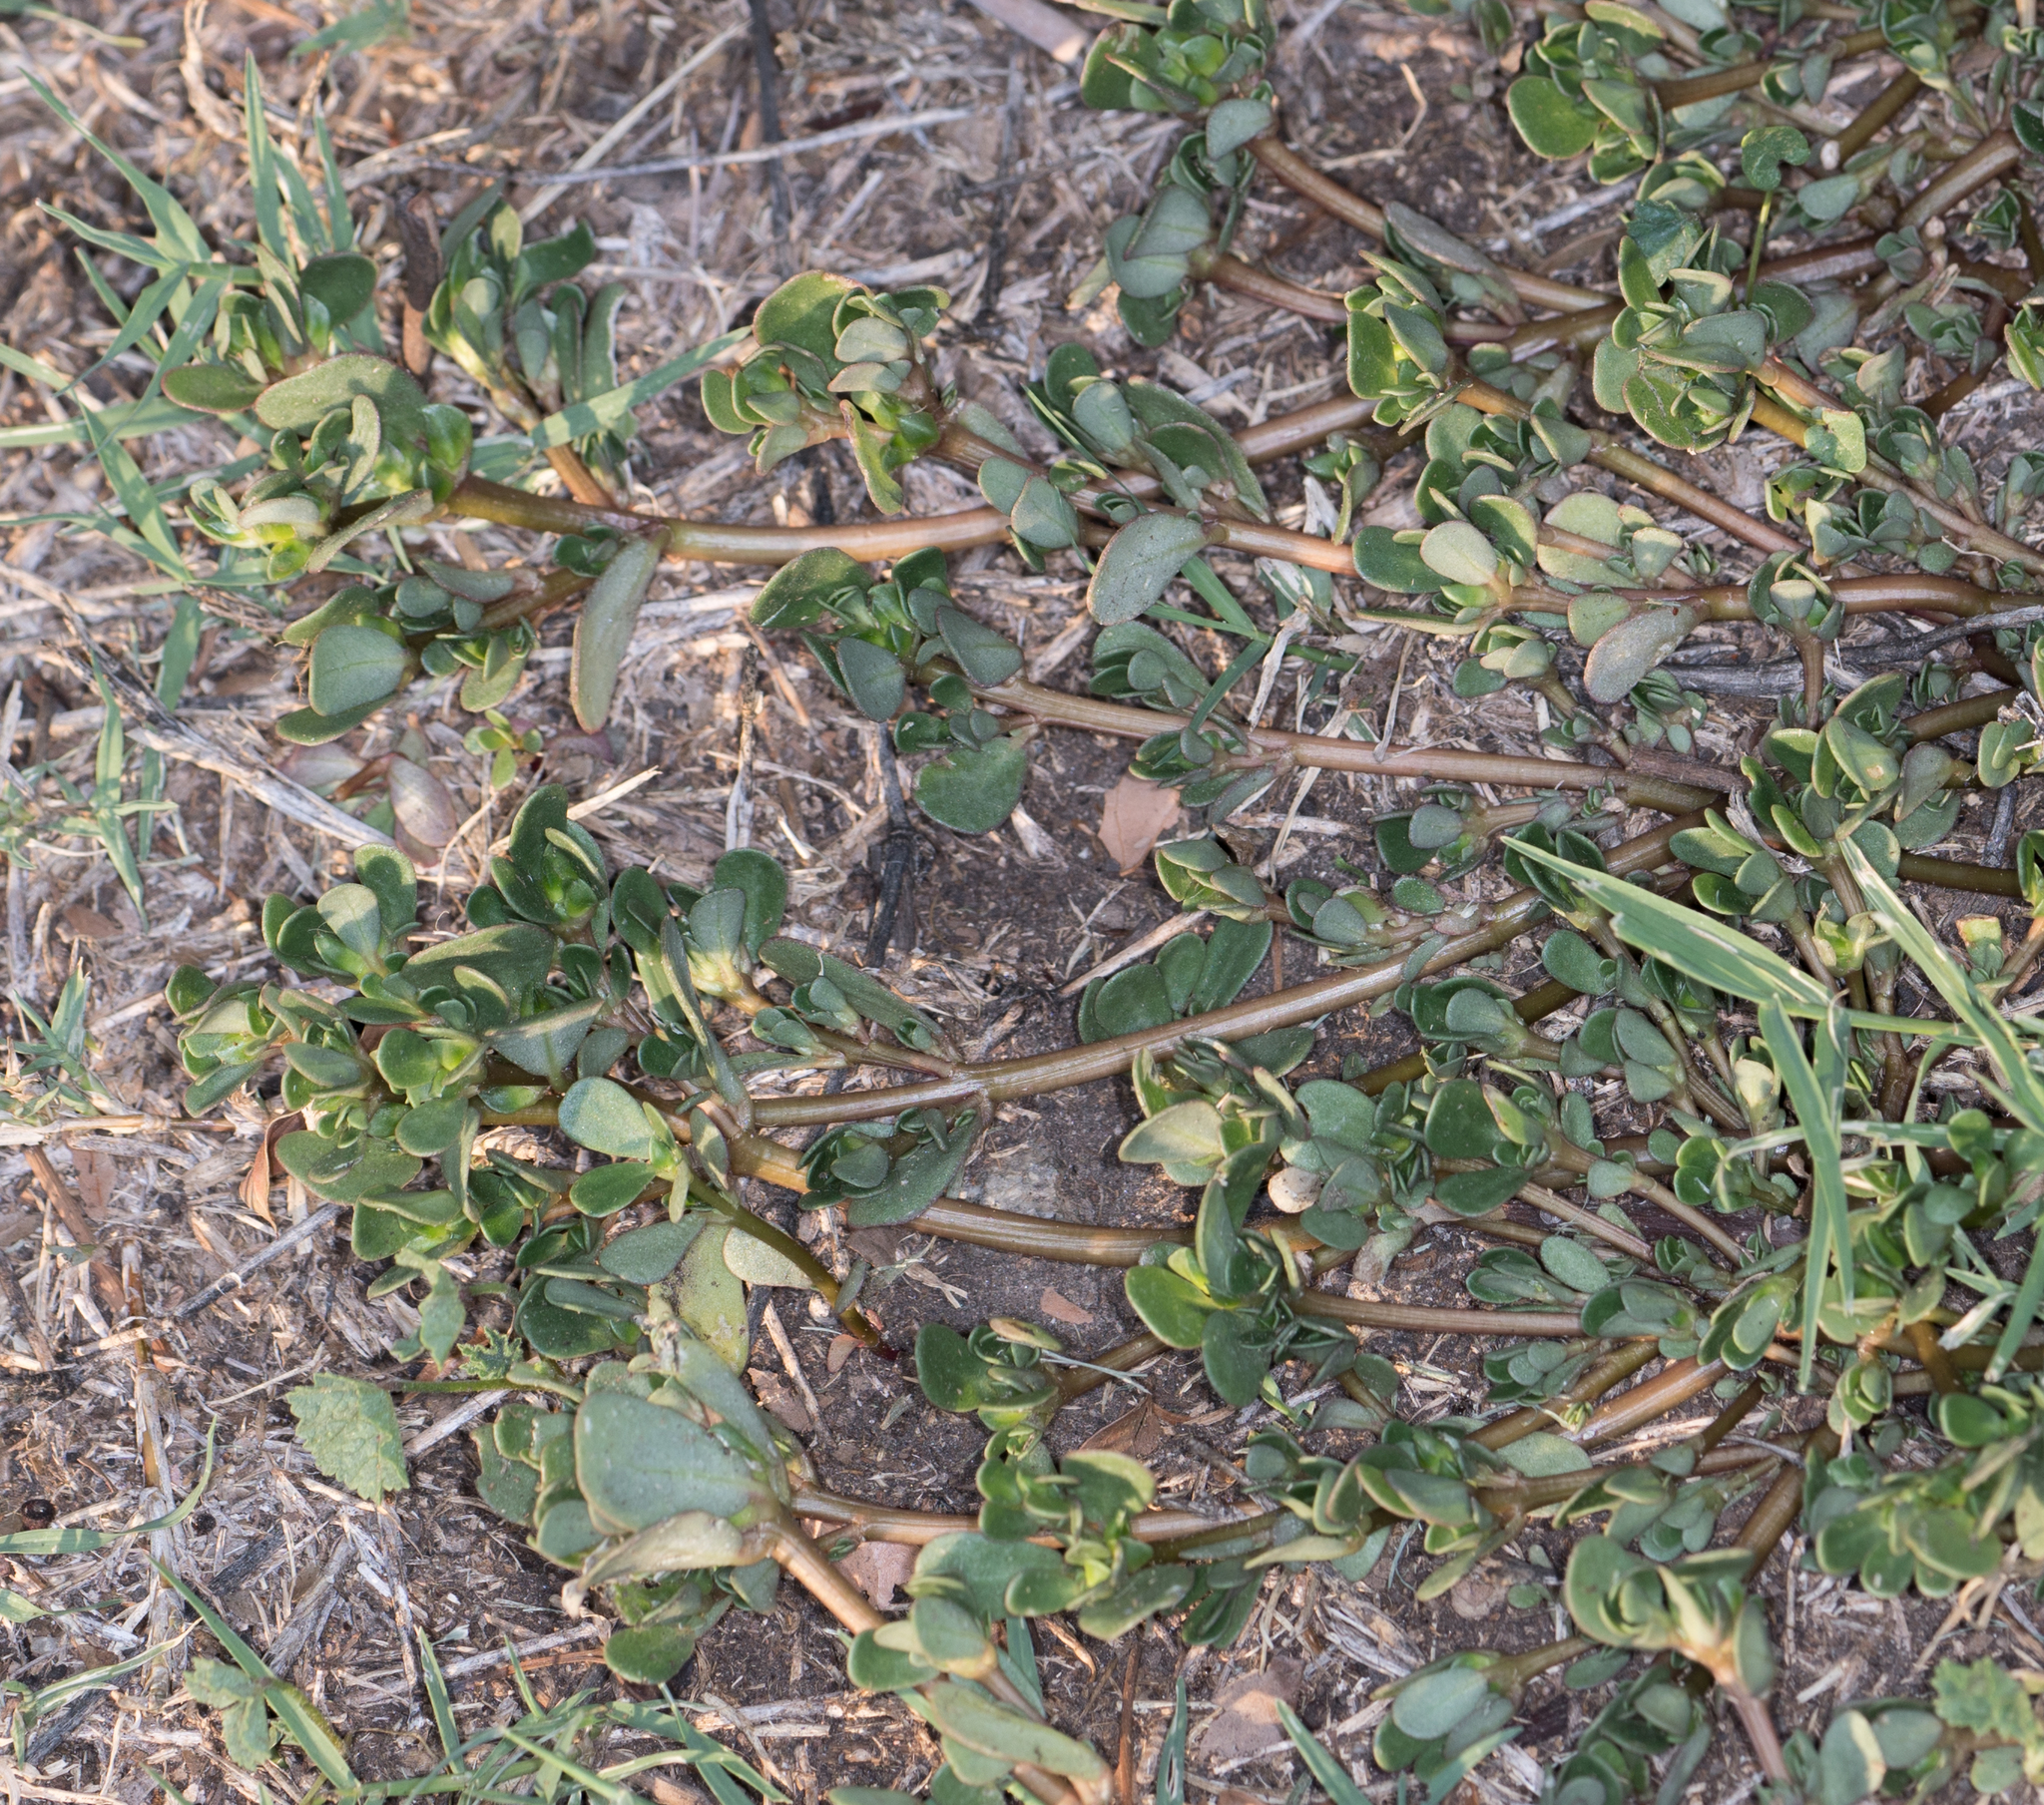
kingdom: Plantae
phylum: Tracheophyta
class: Magnoliopsida
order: Caryophyllales
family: Portulacaceae
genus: Portulaca
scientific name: Portulaca oleracea
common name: Common purslane
